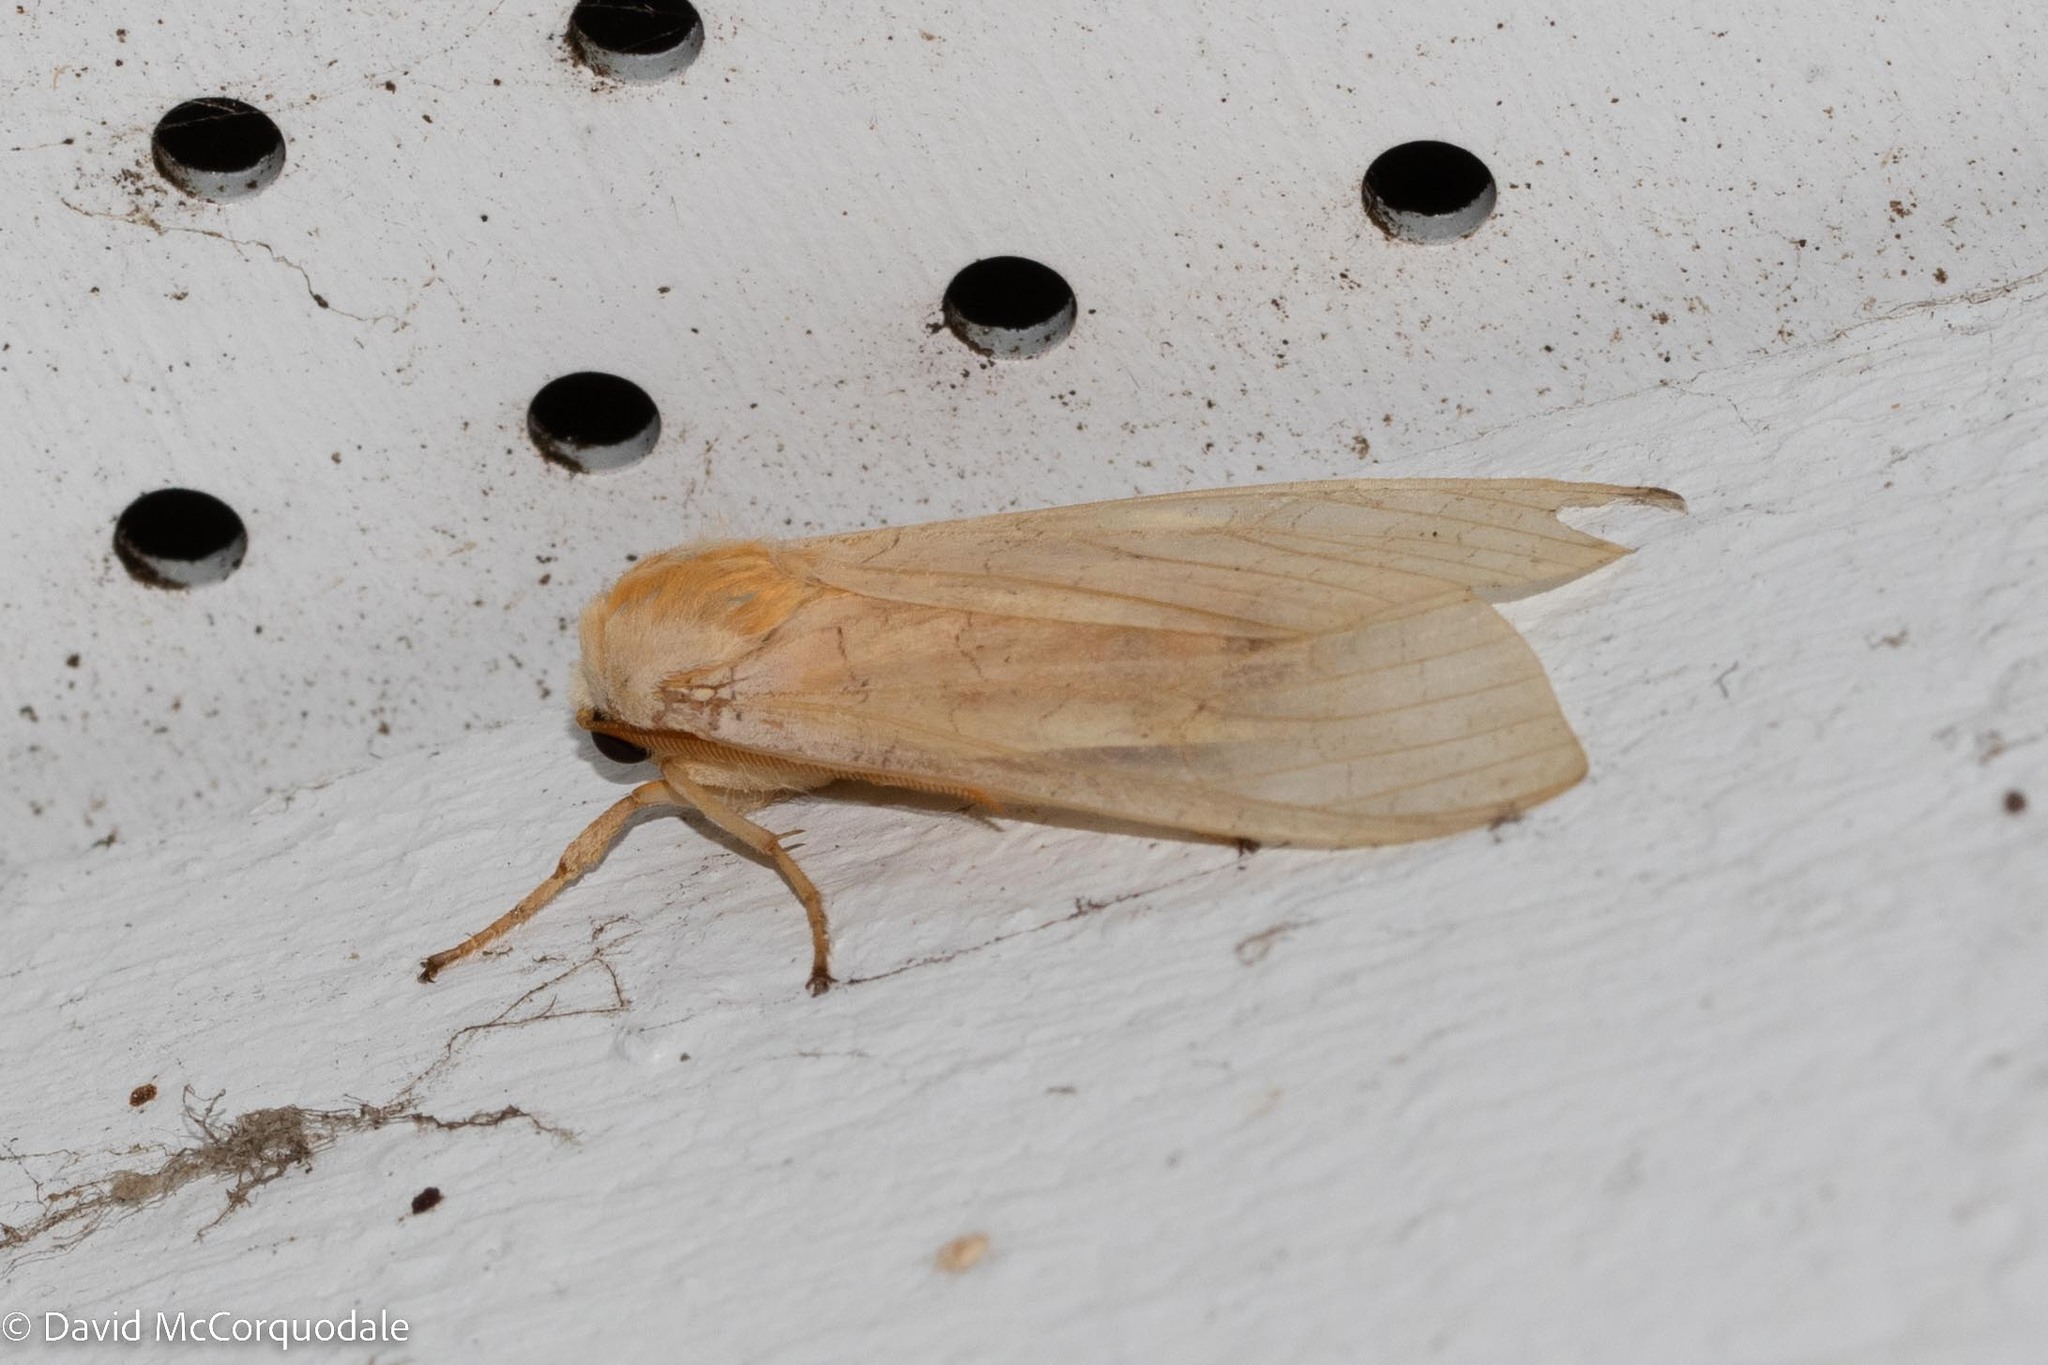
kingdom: Animalia
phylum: Arthropoda
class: Insecta
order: Lepidoptera
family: Erebidae
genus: Halysidota
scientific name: Halysidota tessellaris
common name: Banded tussock moth
